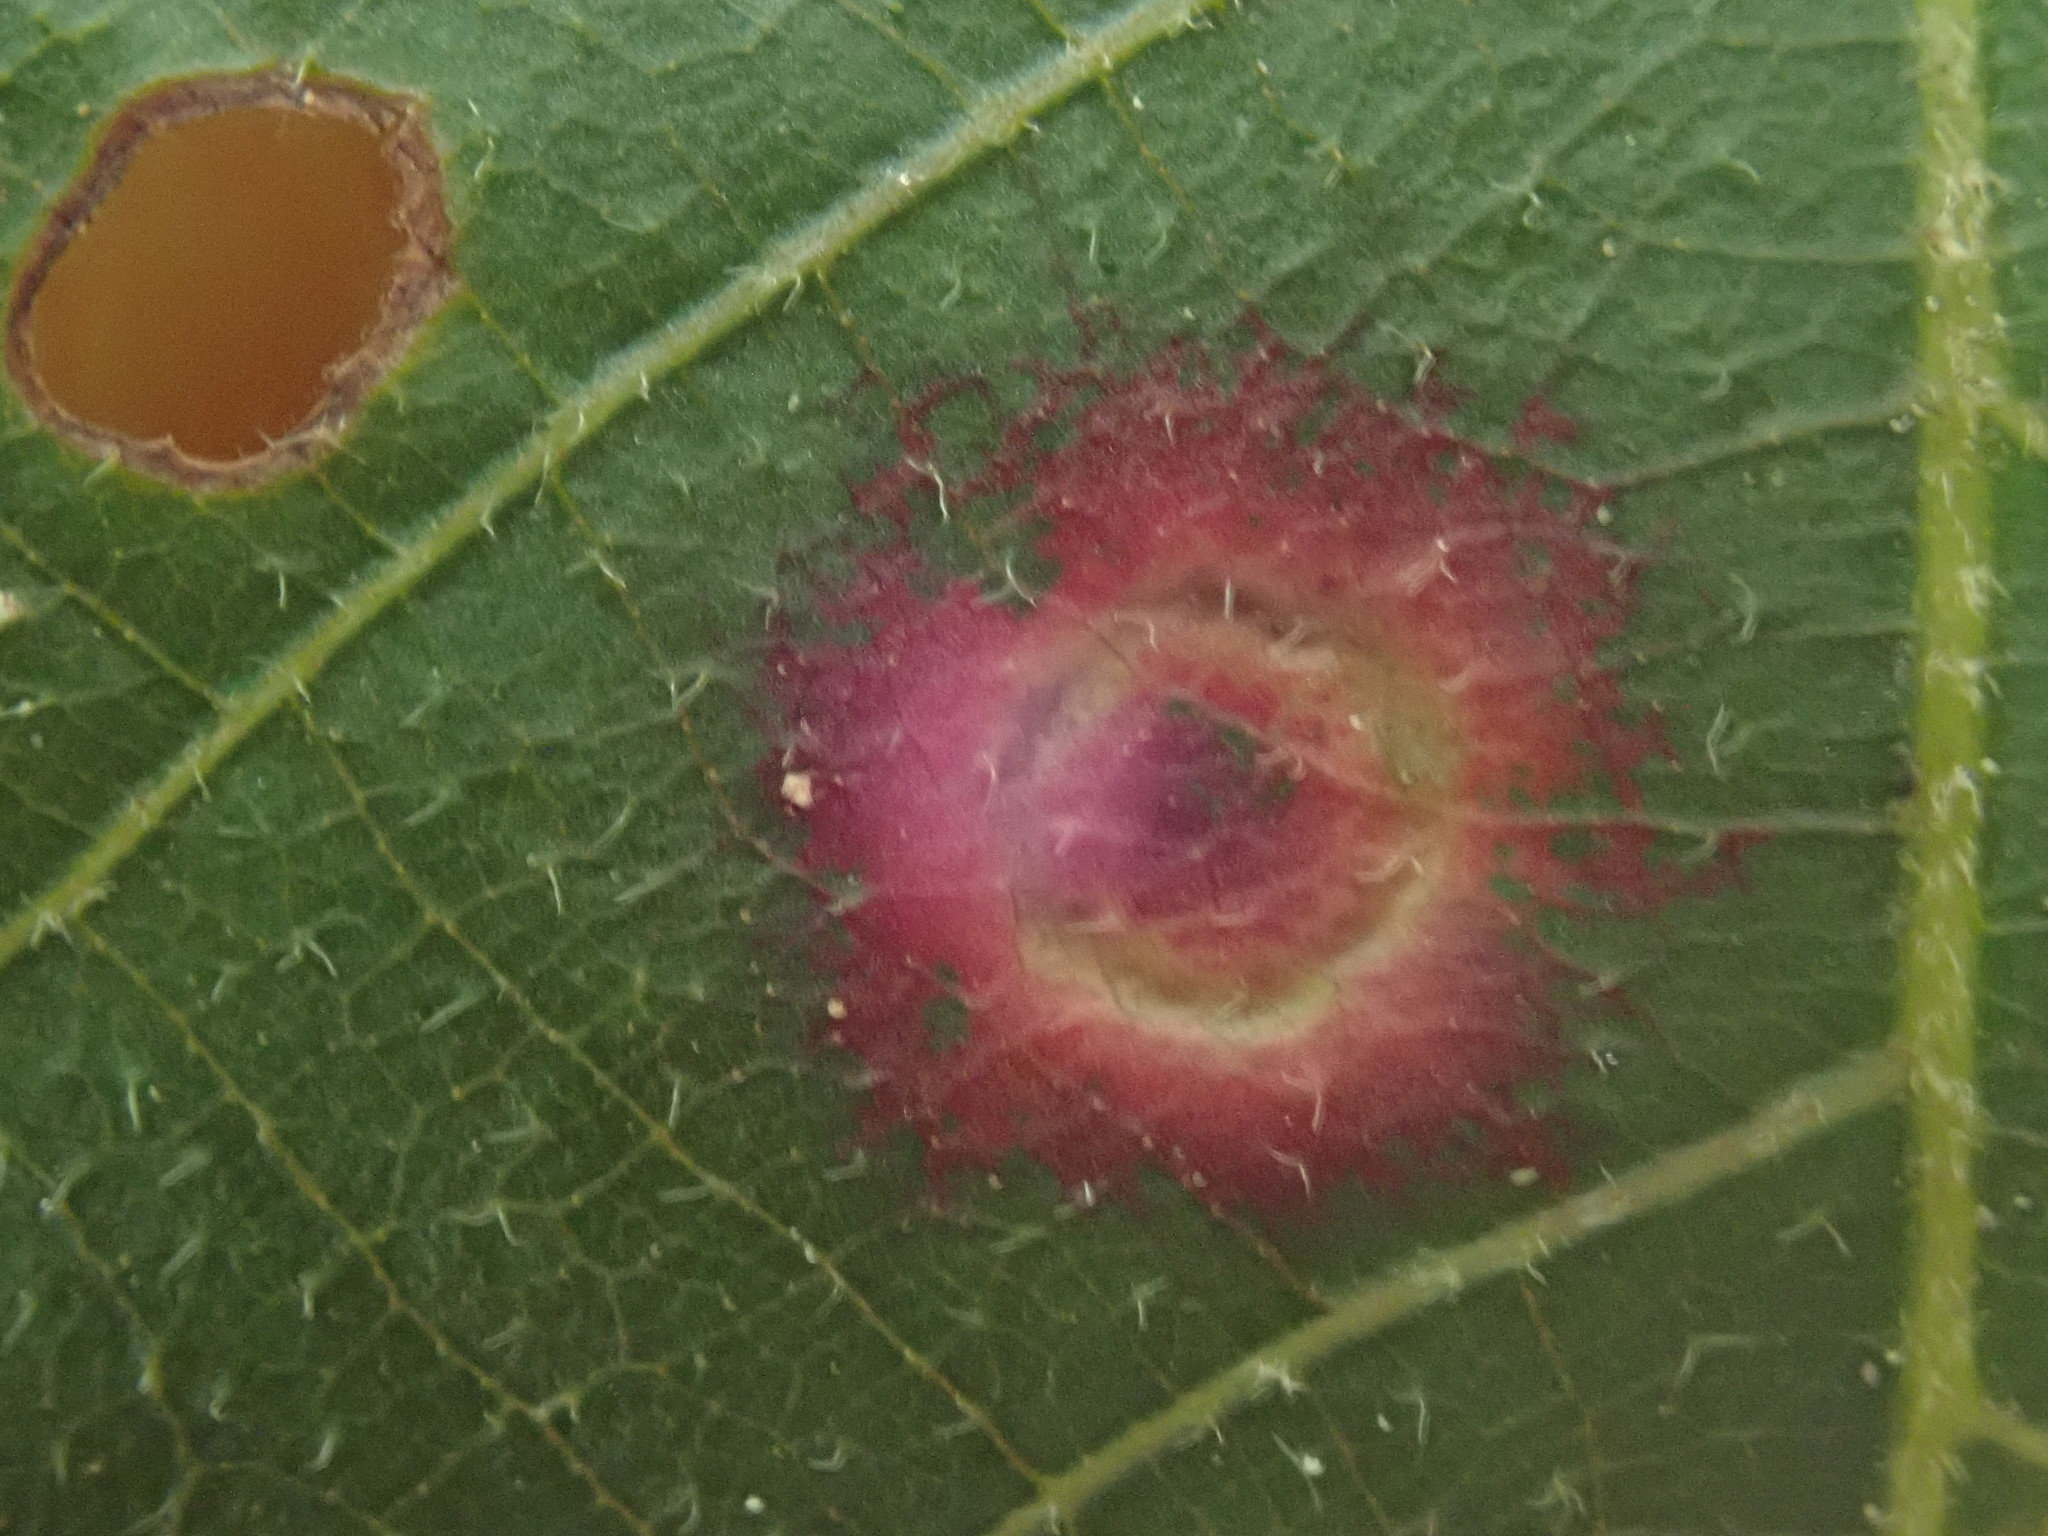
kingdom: Animalia
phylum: Arthropoda
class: Insecta
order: Diptera
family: Cecidomyiidae
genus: Gliaspilota
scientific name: Gliaspilota glutinosa
